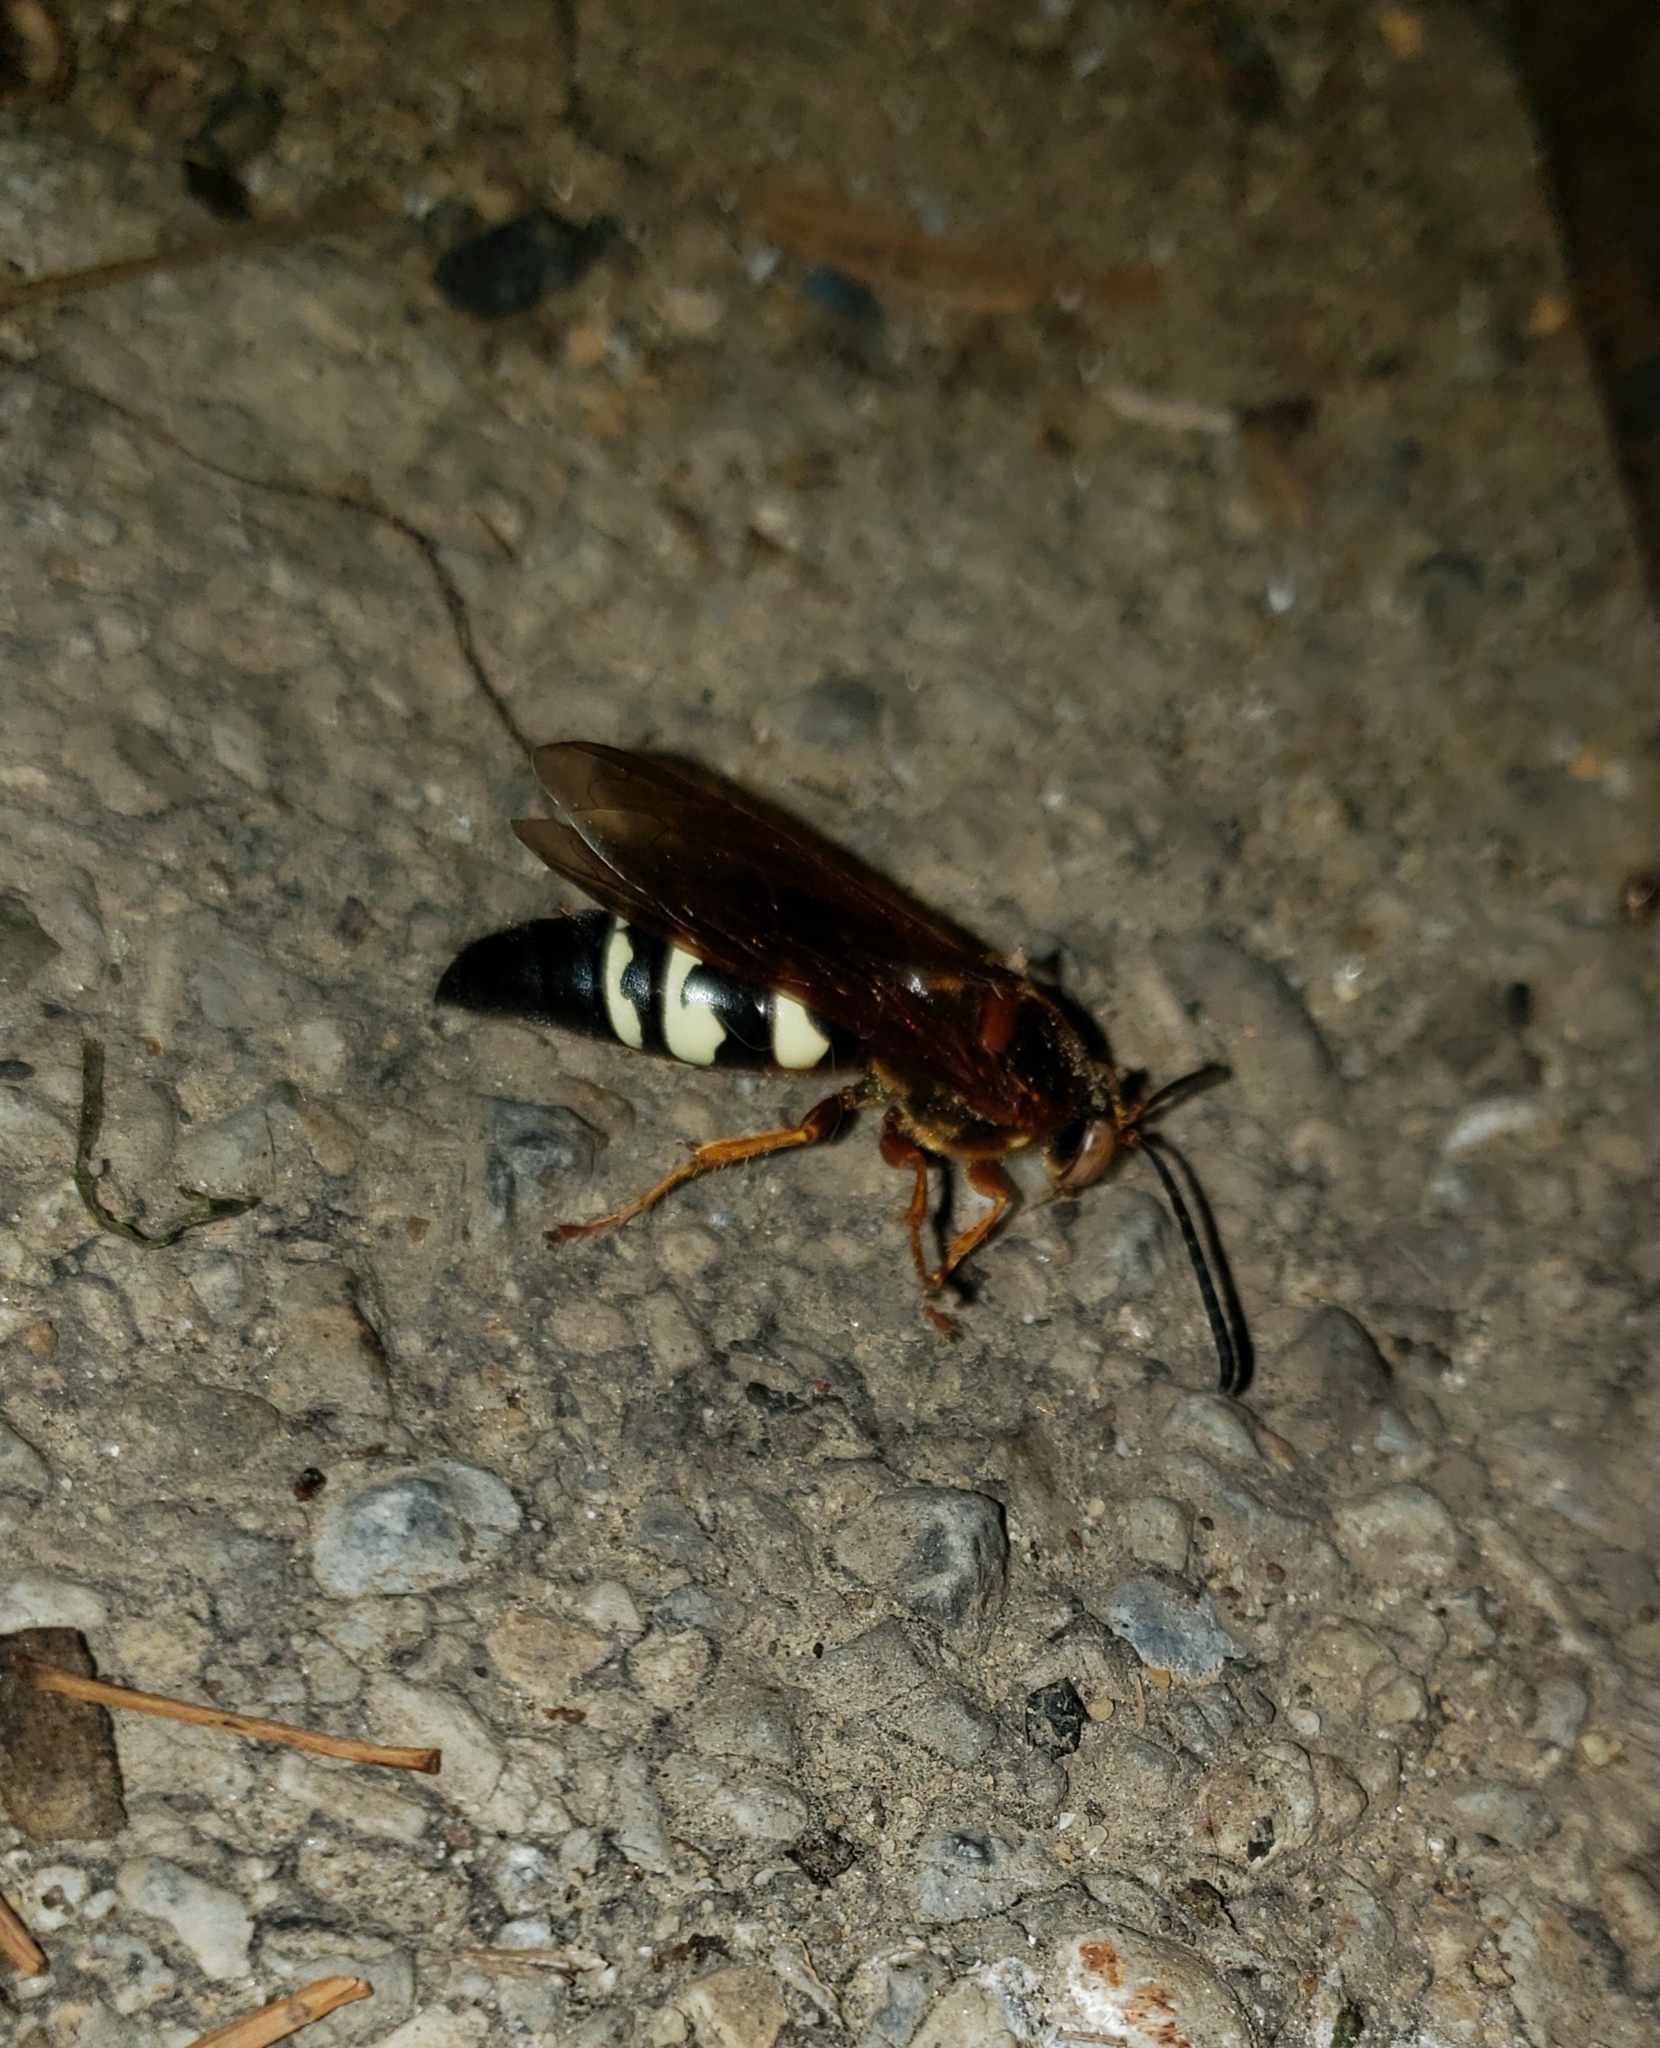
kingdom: Animalia
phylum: Arthropoda
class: Insecta
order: Hymenoptera
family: Crabronidae
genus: Sphecius
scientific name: Sphecius speciosus
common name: Cicada killer
